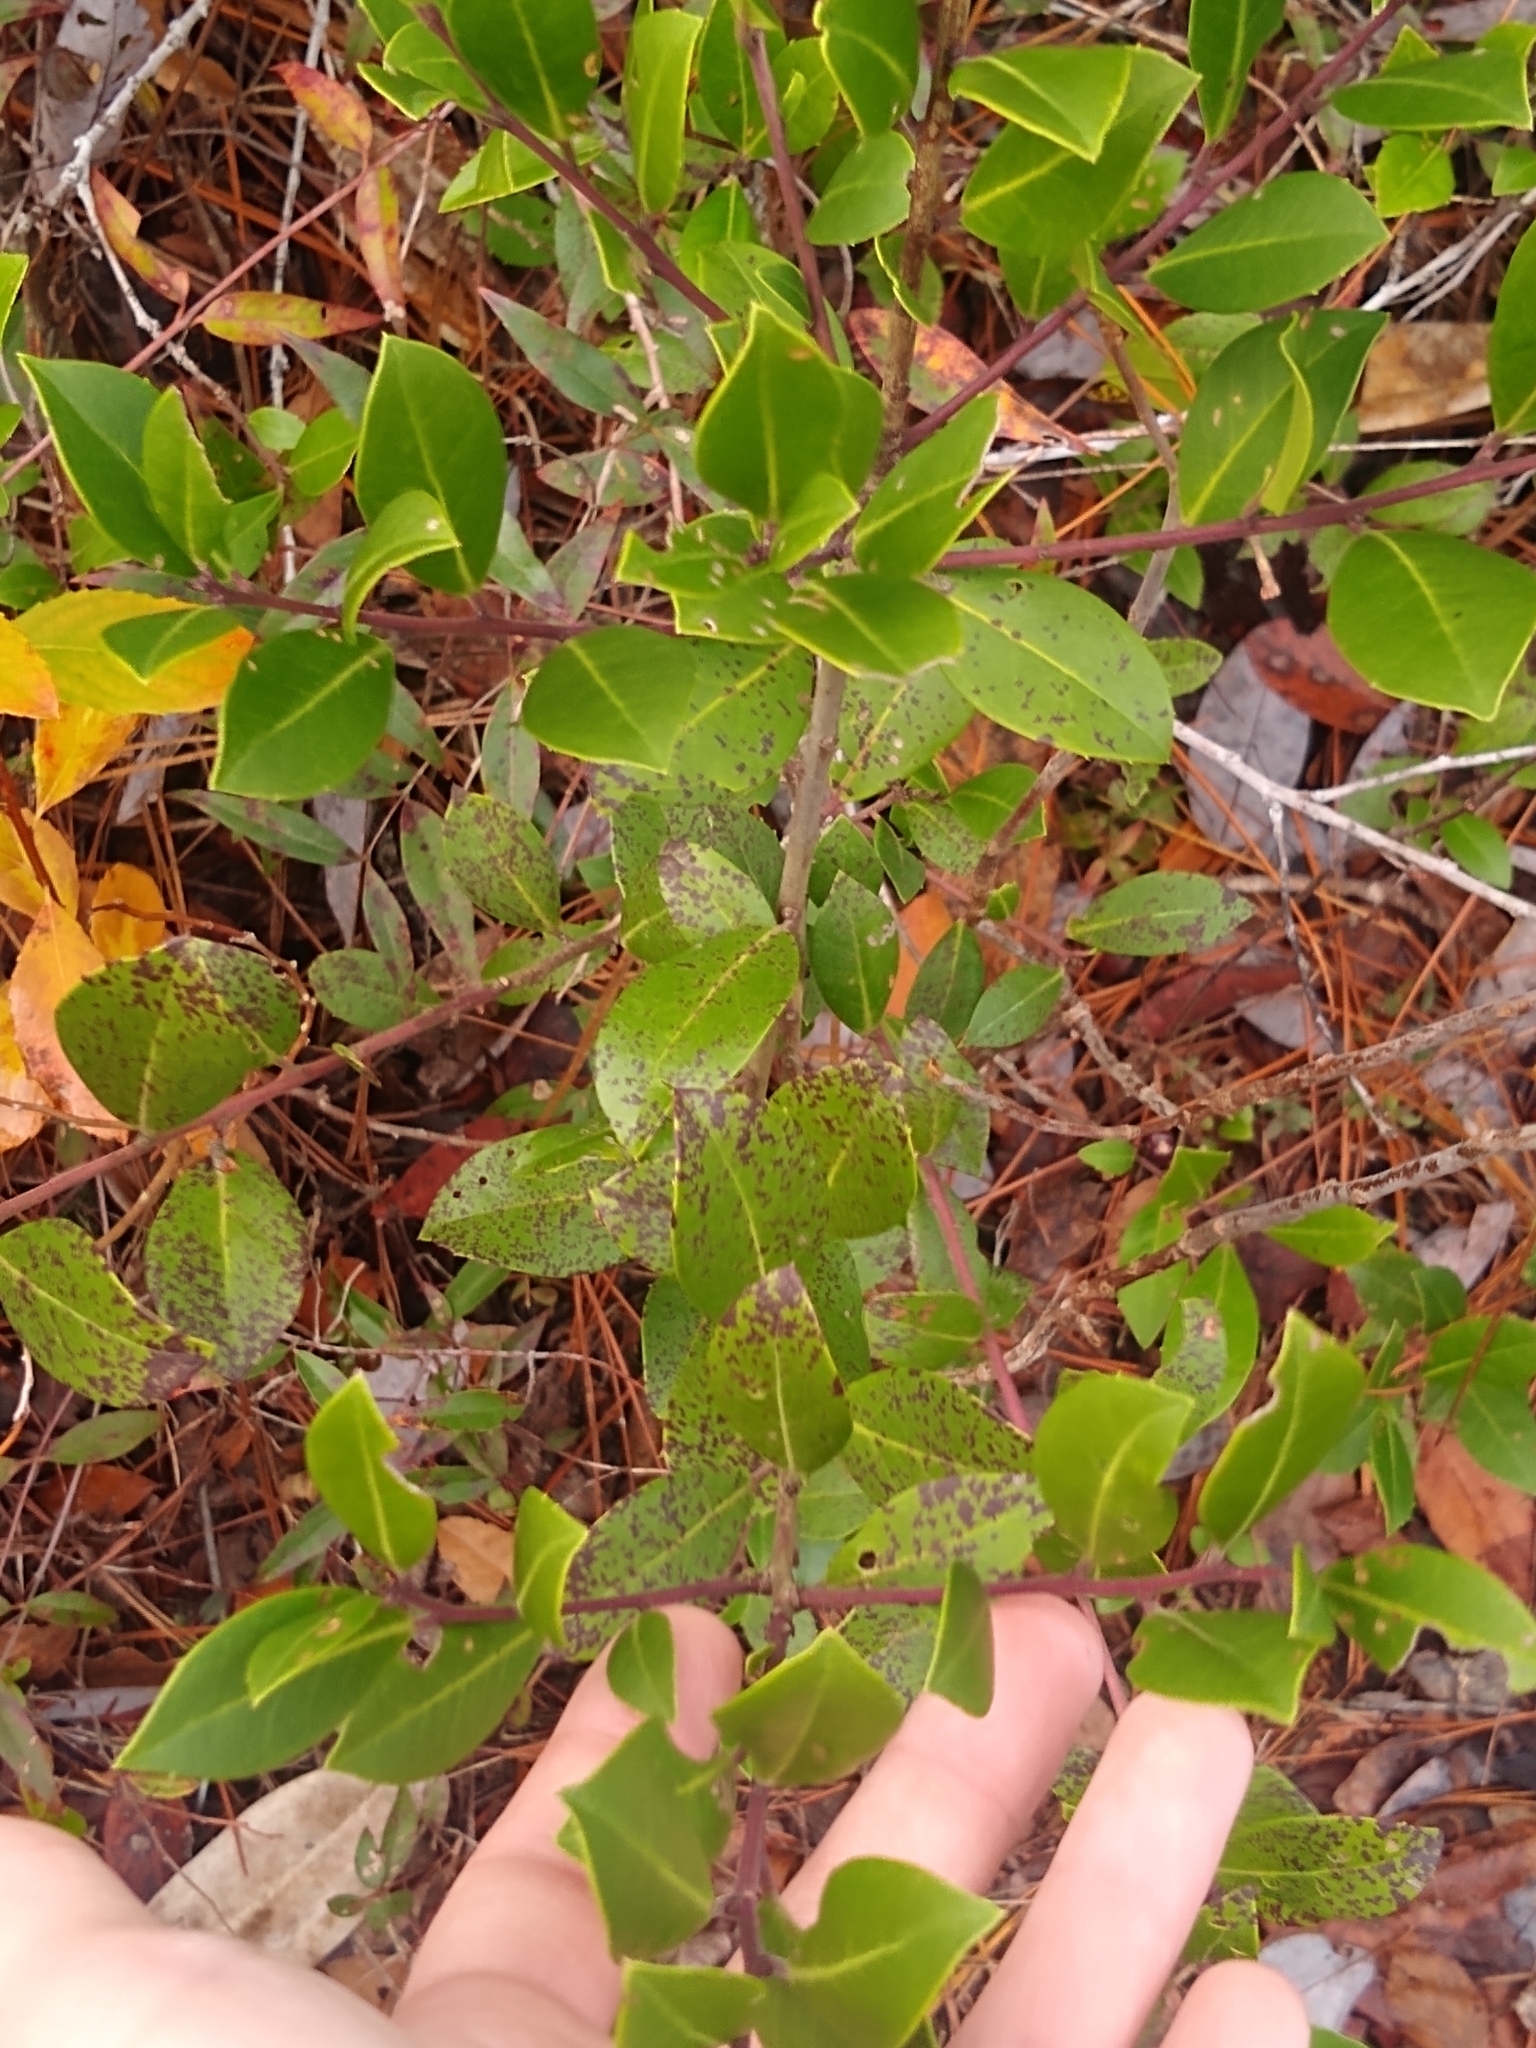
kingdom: Plantae
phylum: Tracheophyta
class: Magnoliopsida
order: Aquifoliales
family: Aquifoliaceae
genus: Ilex
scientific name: Ilex coriacea
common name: Sweet gallberry
